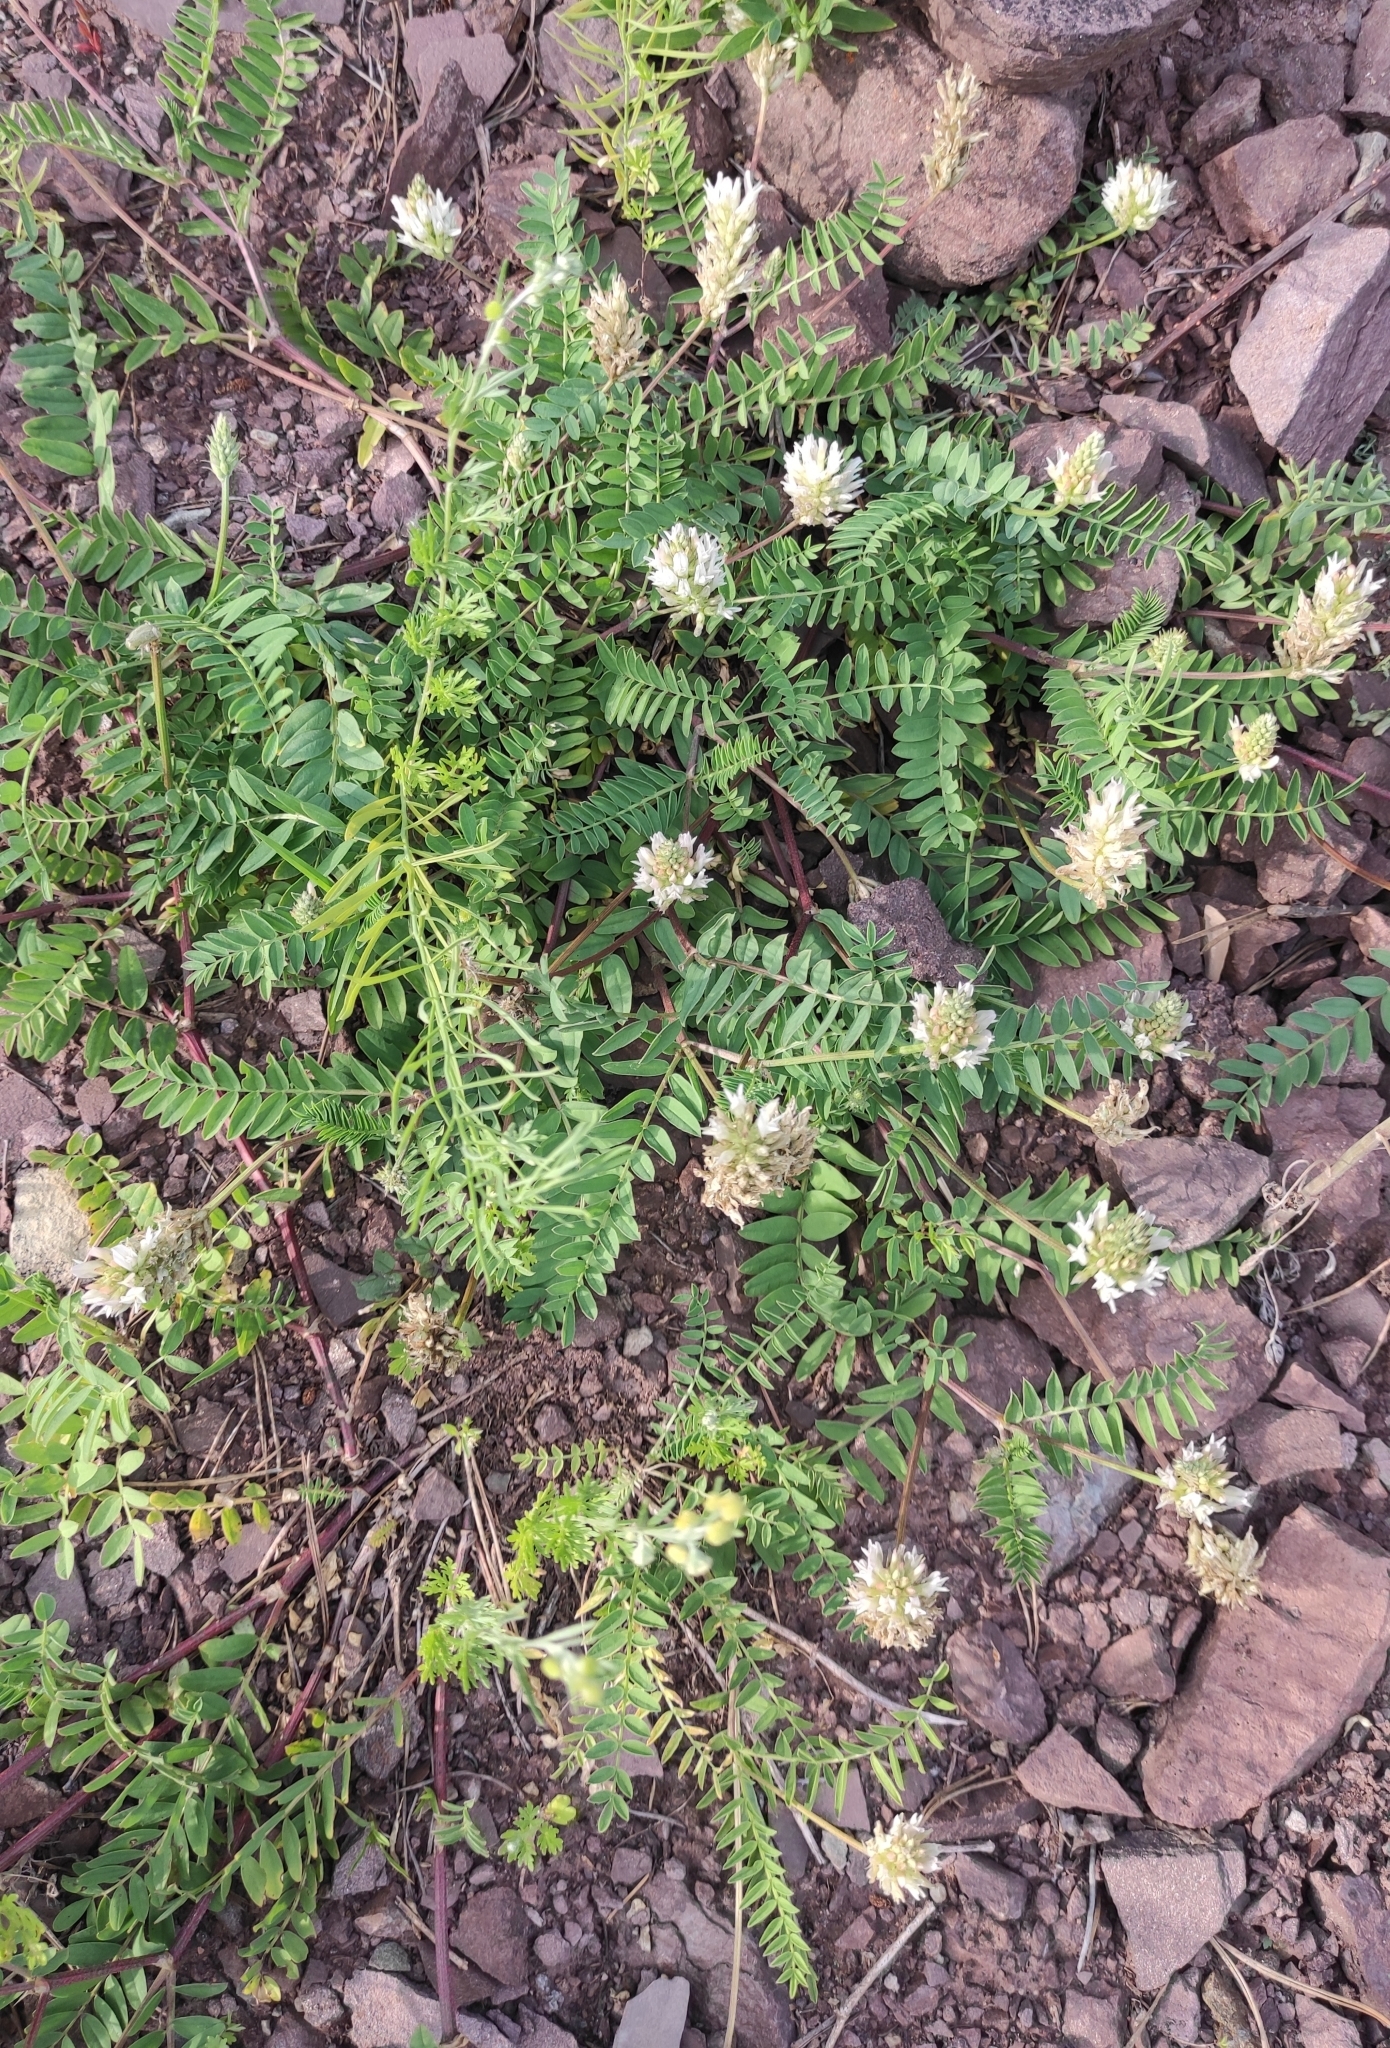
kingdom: Plantae
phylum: Tracheophyta
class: Magnoliopsida
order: Fabales
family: Fabaceae
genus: Astragalus
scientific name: Astragalus laxmannii
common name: Laxmann's milk-vetch
